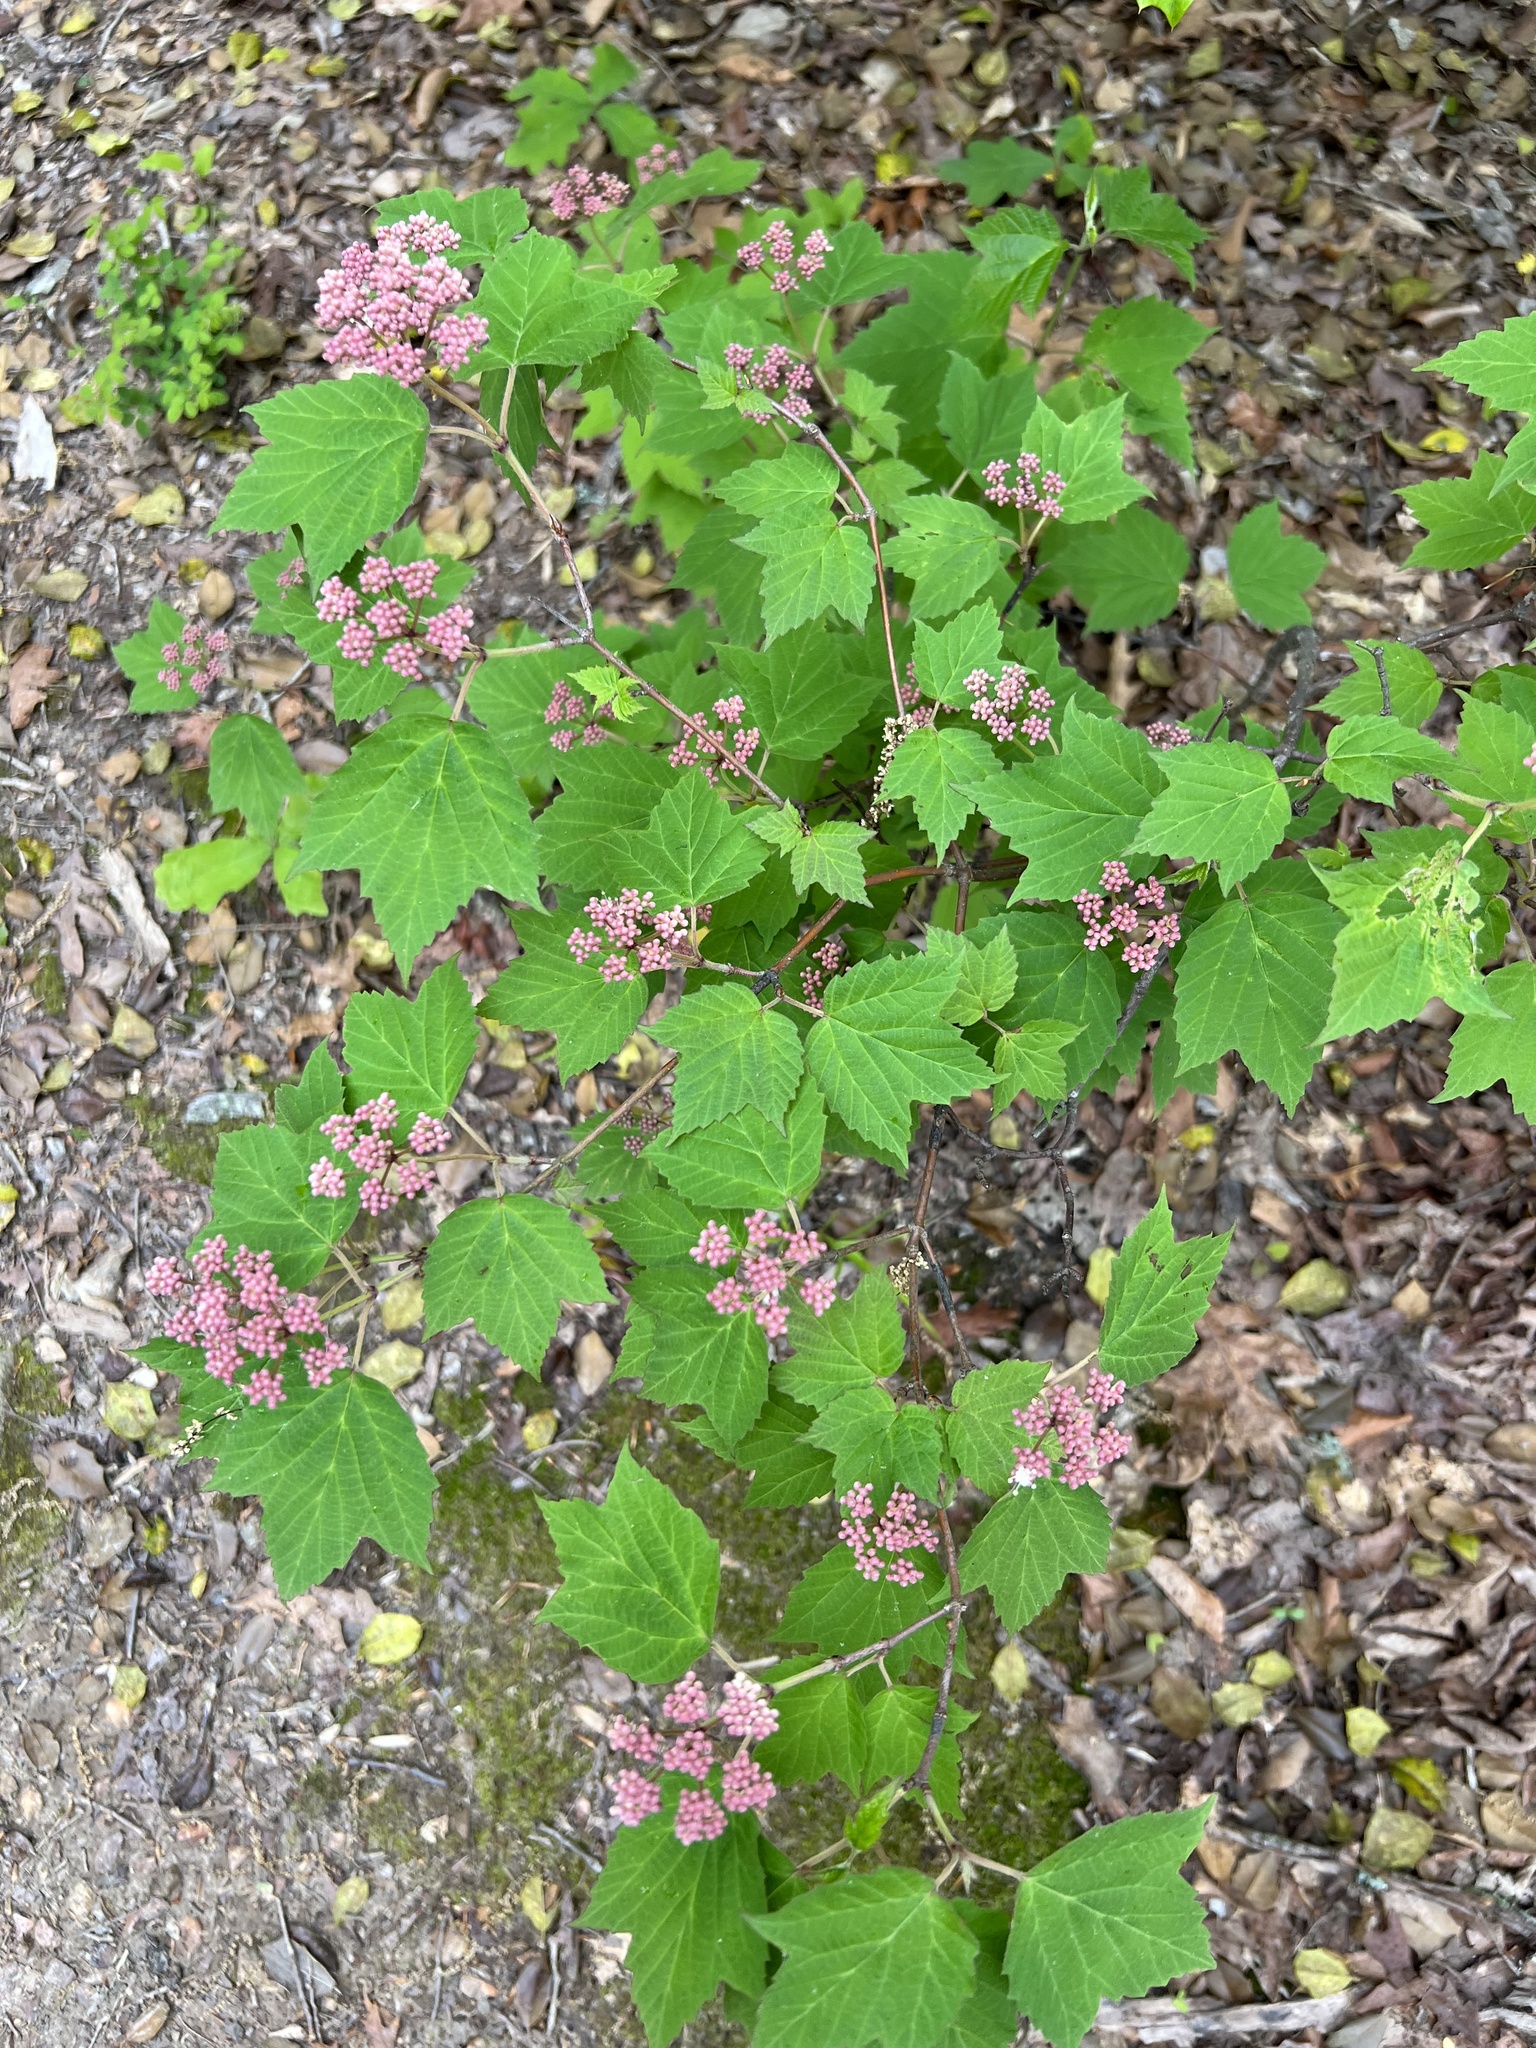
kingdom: Plantae
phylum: Tracheophyta
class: Magnoliopsida
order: Dipsacales
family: Viburnaceae
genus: Viburnum
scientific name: Viburnum acerifolium
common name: Dockmackie
